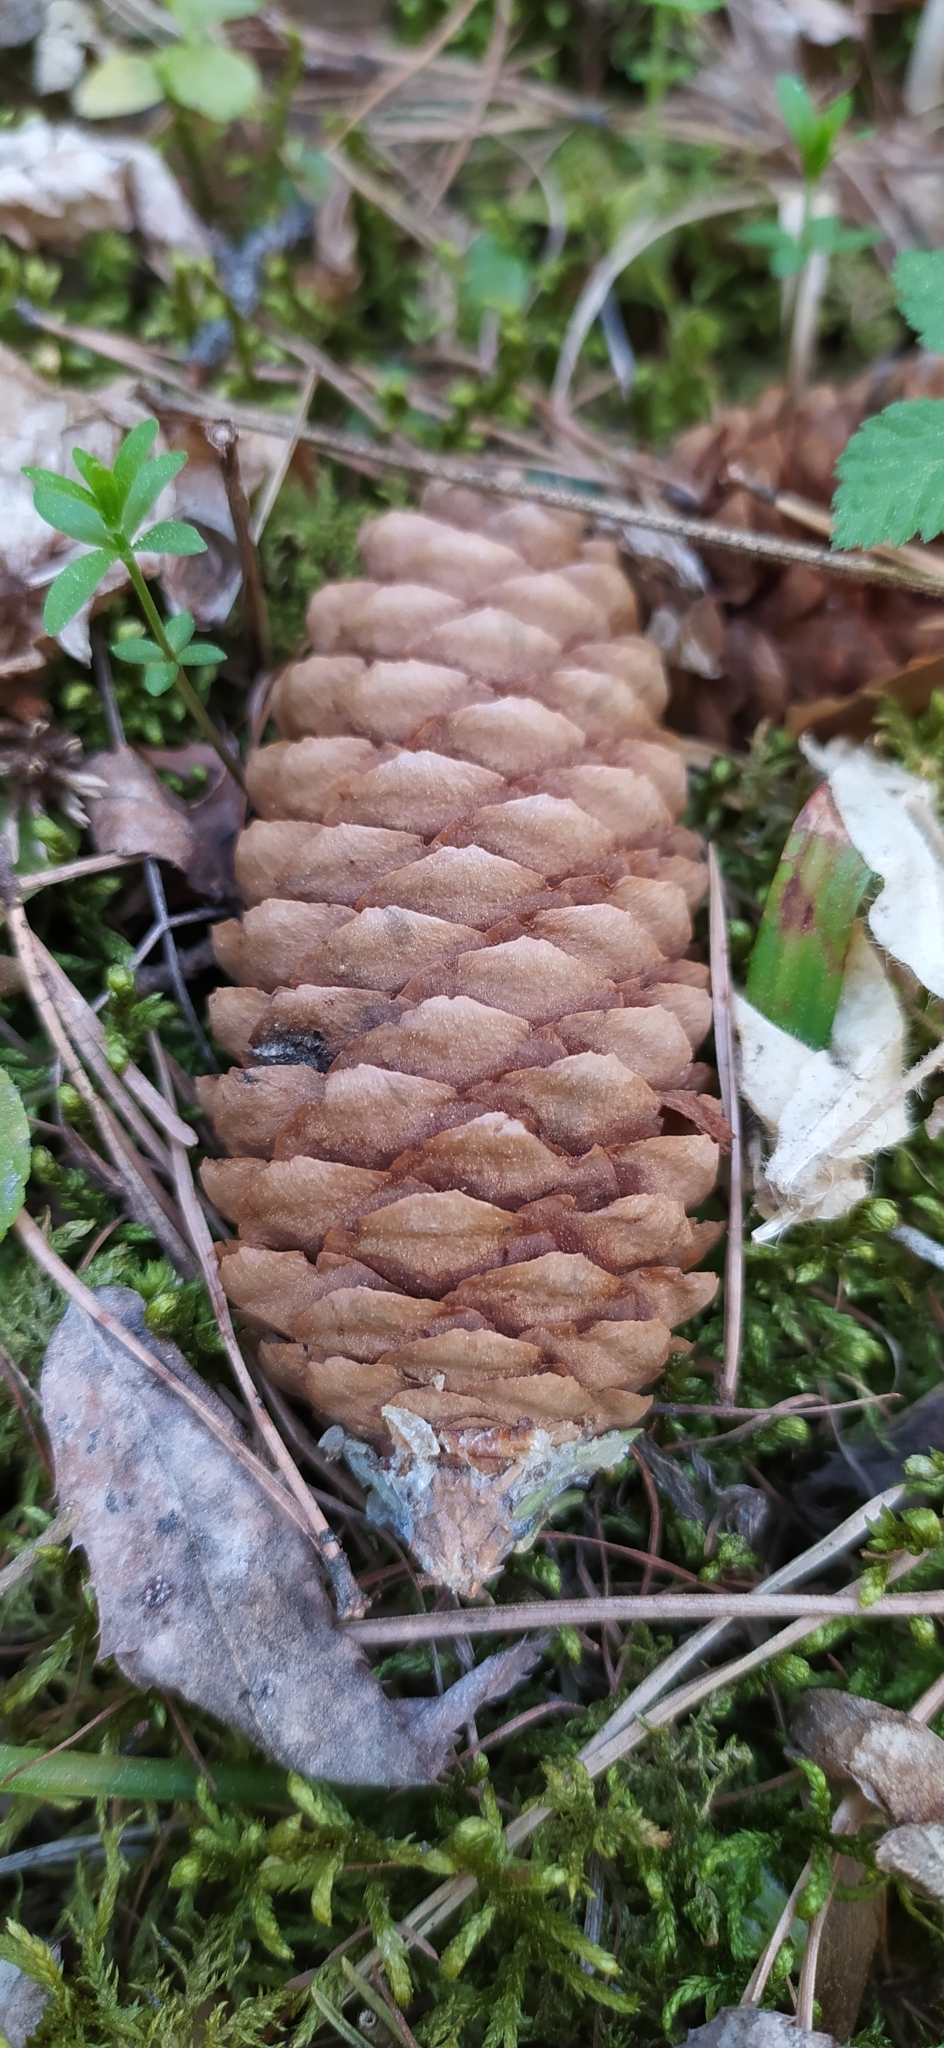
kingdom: Plantae
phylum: Tracheophyta
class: Pinopsida
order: Pinales
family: Pinaceae
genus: Picea
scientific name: Picea obovata
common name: Siberian spruce
